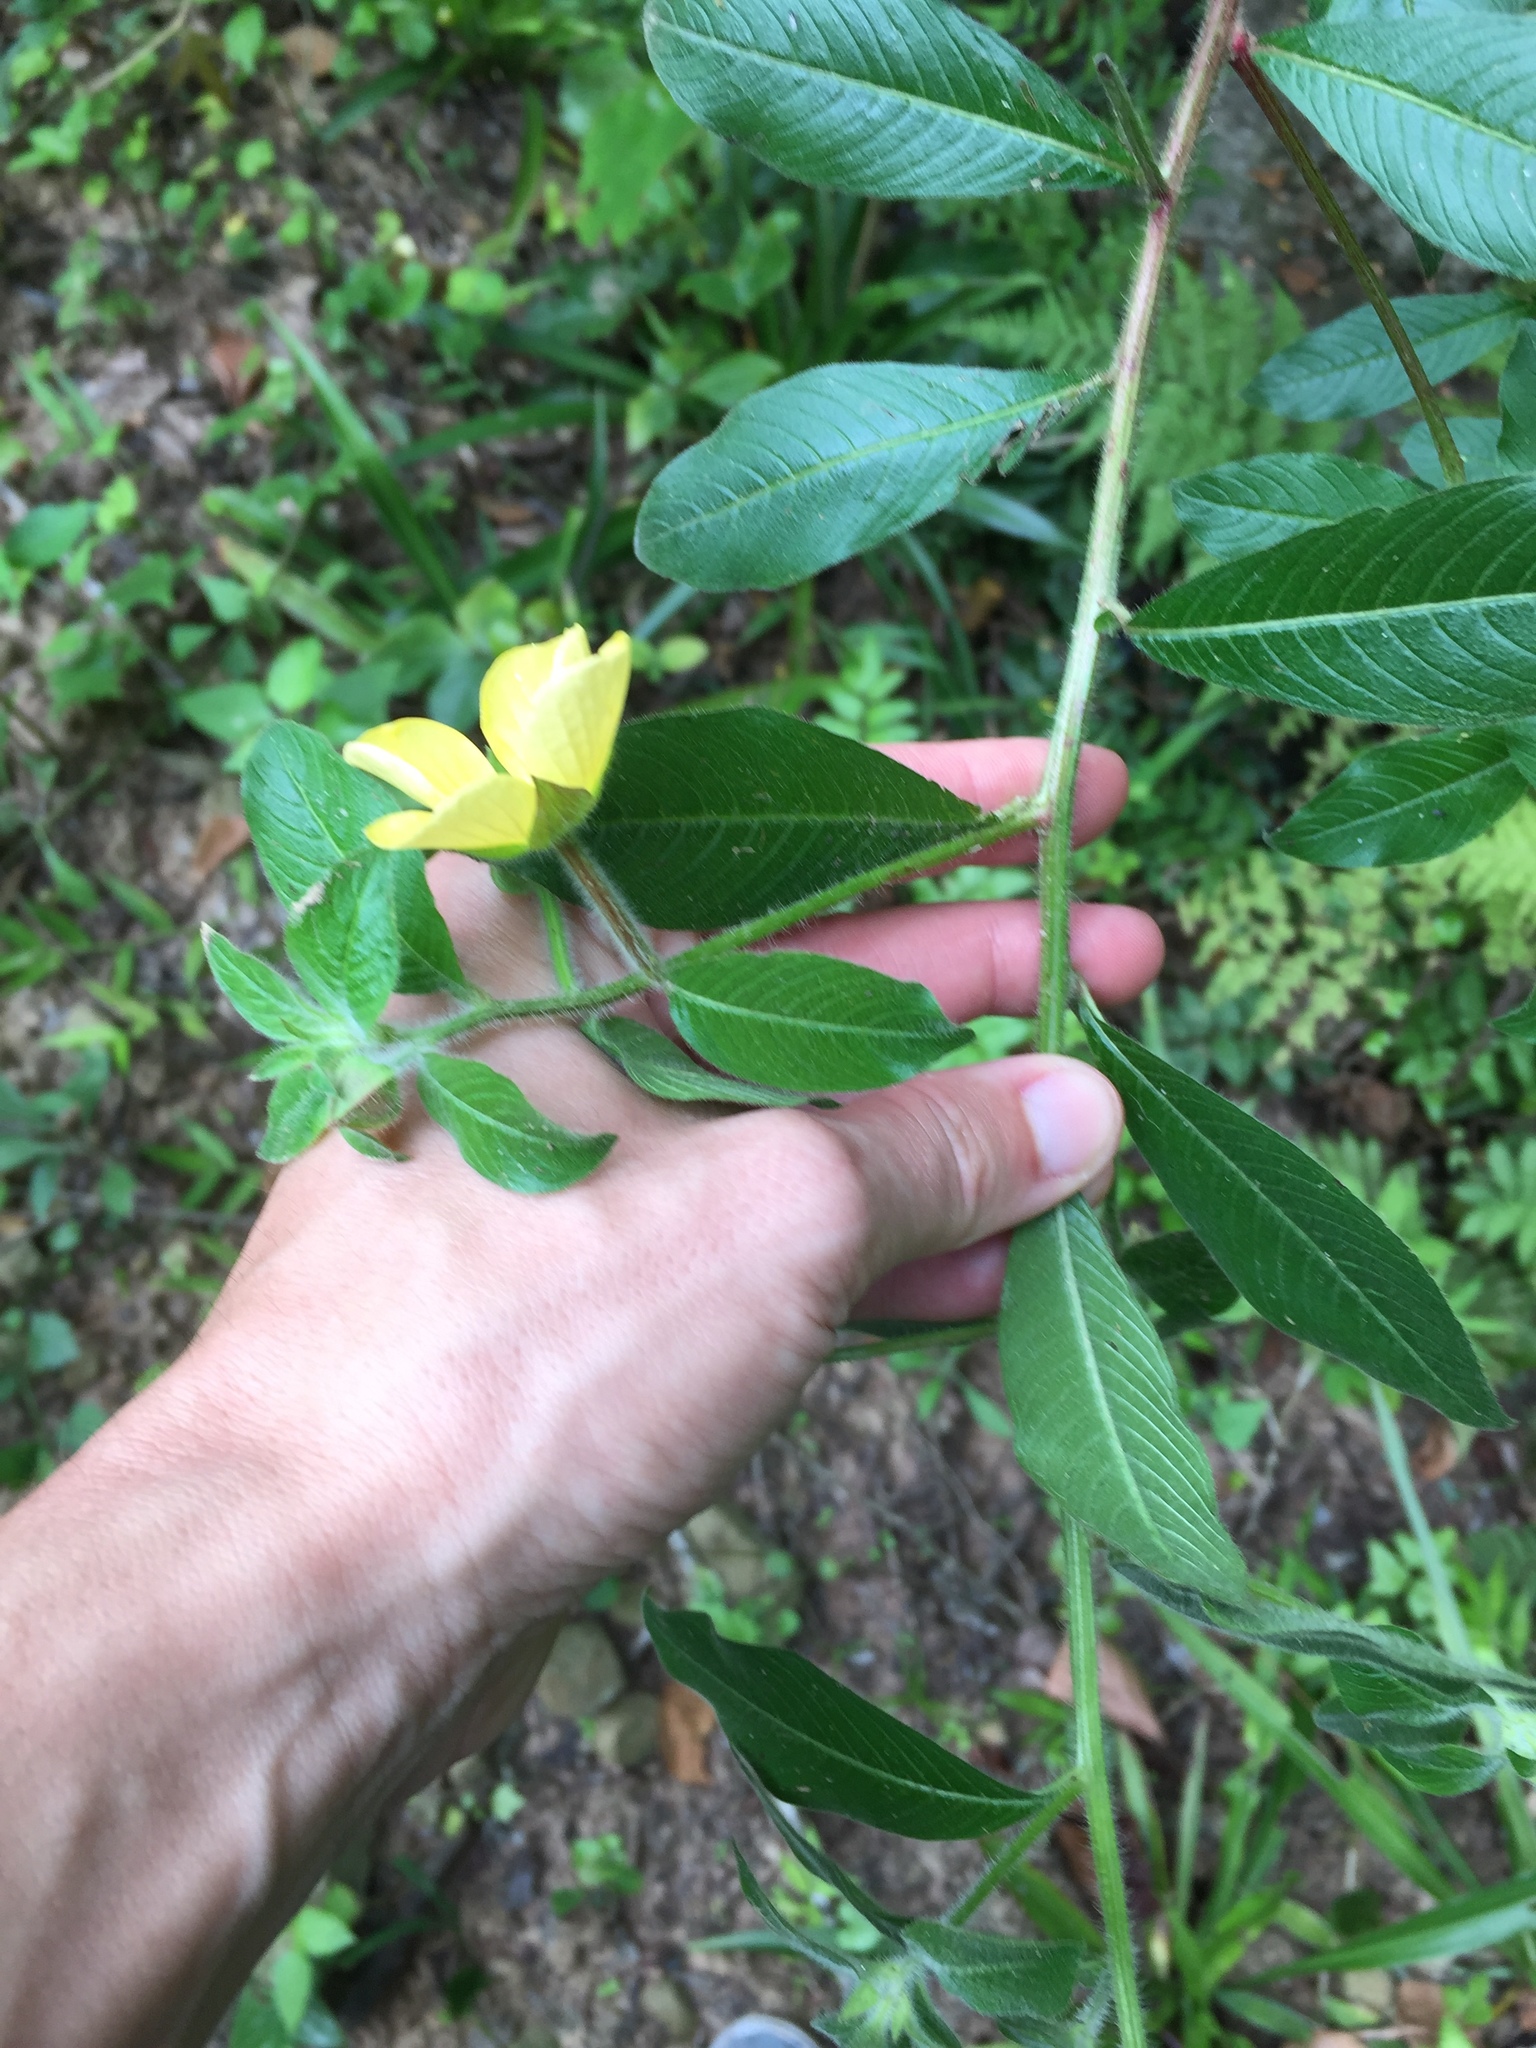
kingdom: Plantae
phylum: Tracheophyta
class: Magnoliopsida
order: Myrtales
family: Onagraceae
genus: Ludwigia
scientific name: Ludwigia octovalvis
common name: Water-primrose
